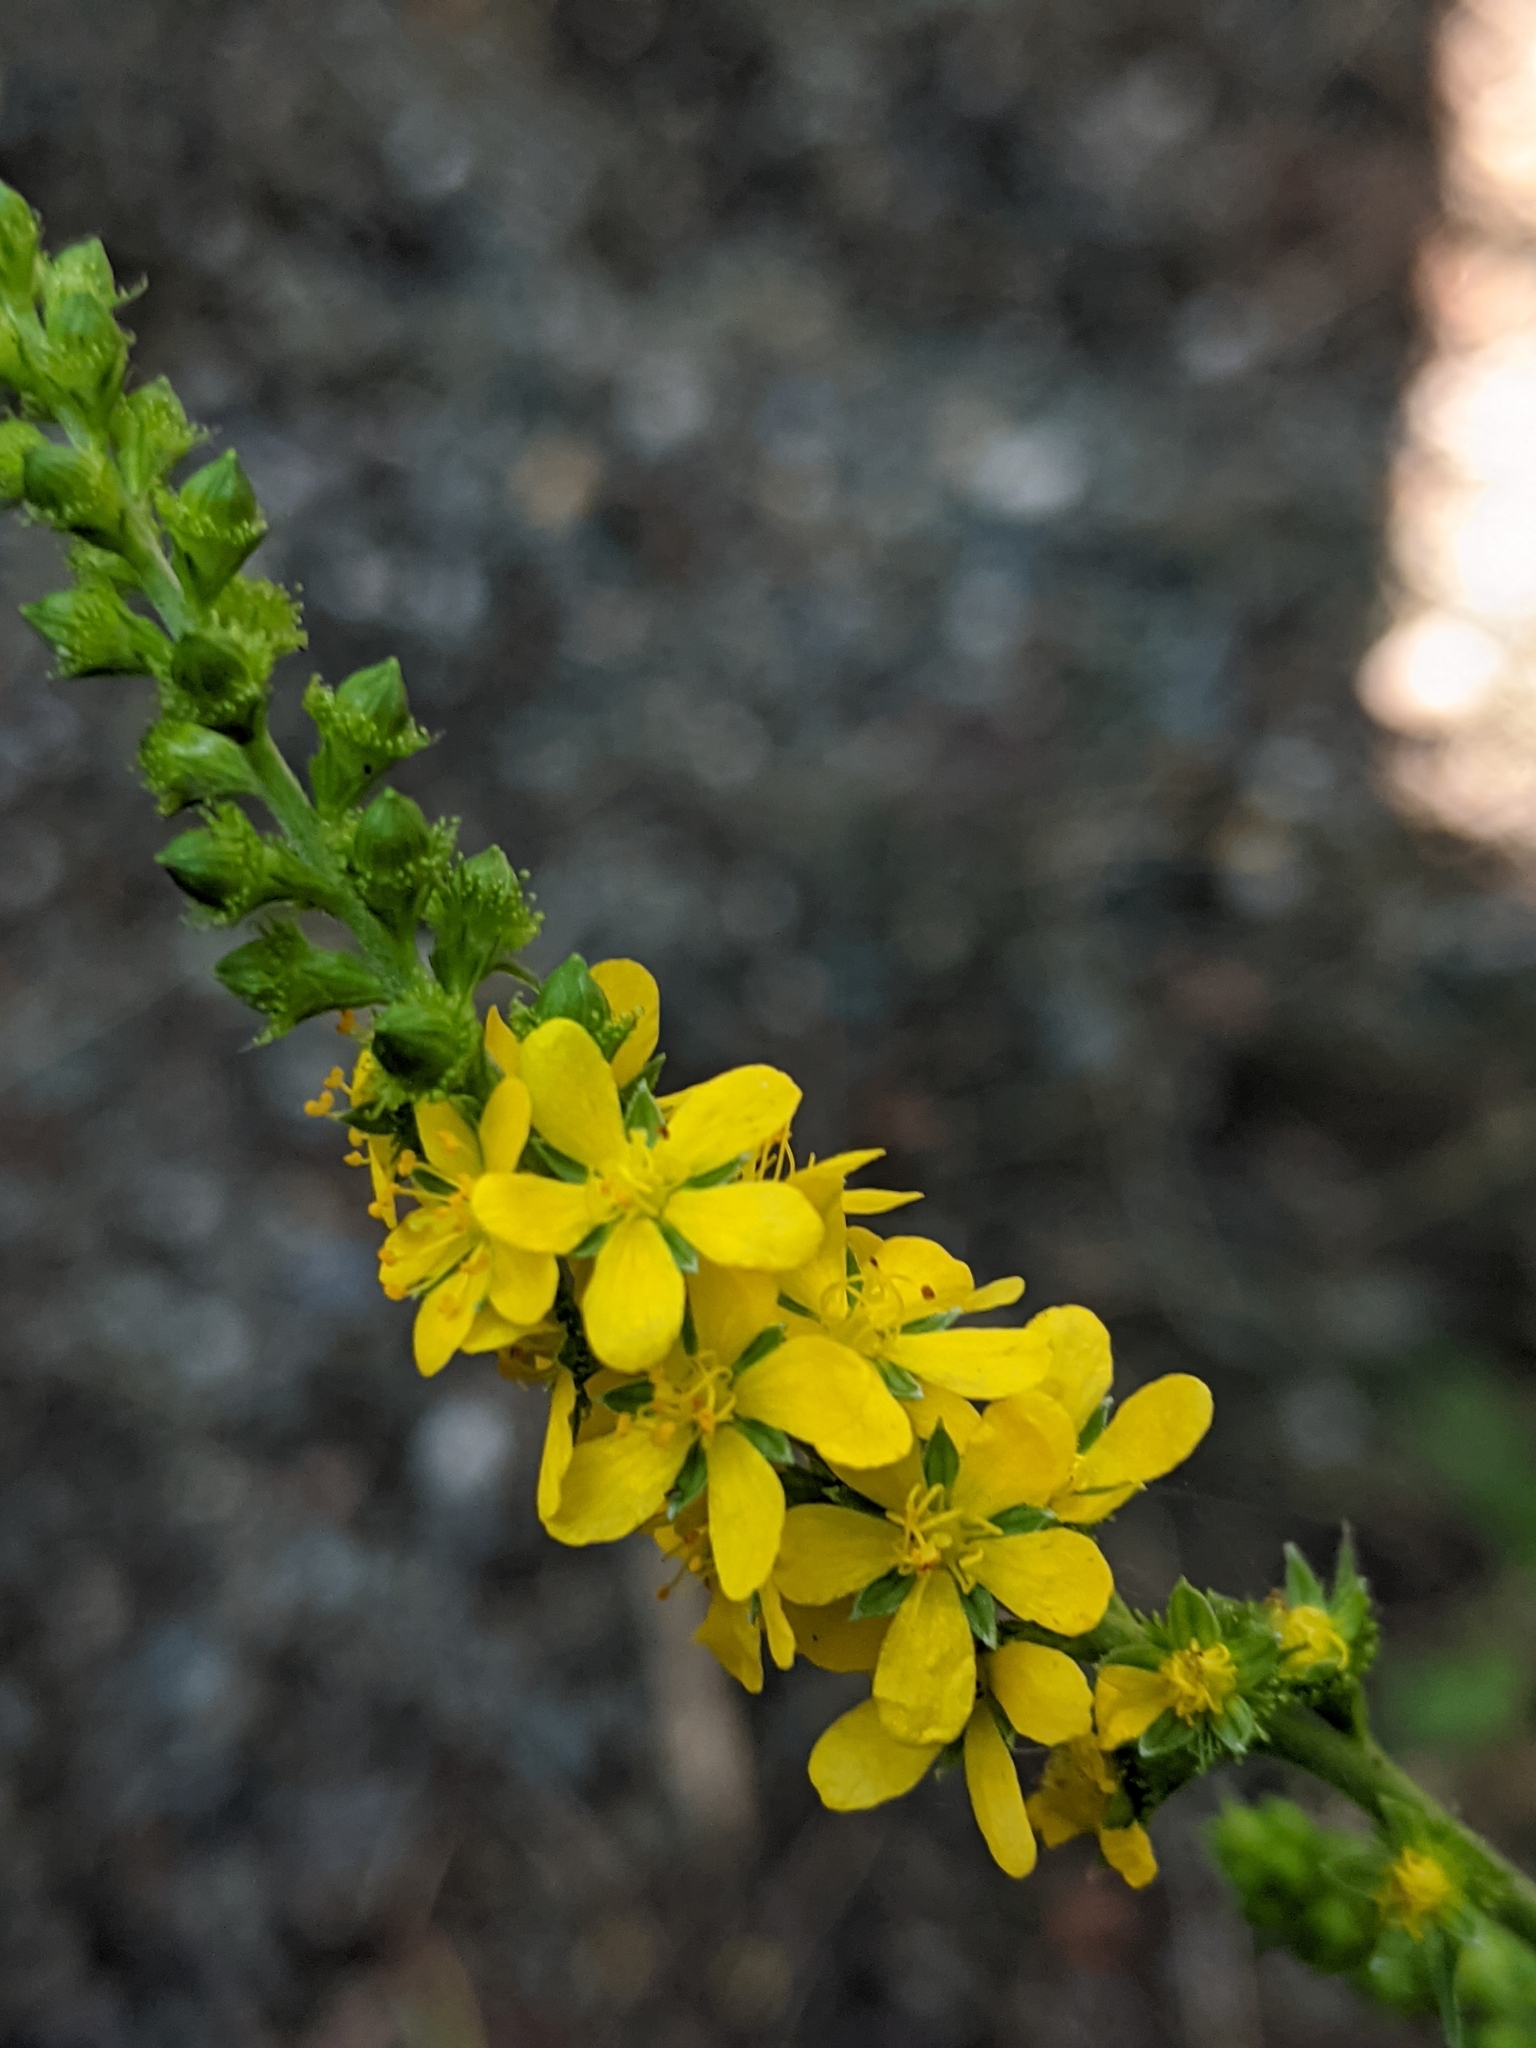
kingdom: Plantae
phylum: Tracheophyta
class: Magnoliopsida
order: Rosales
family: Rosaceae
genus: Agrimonia
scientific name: Agrimonia striata
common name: Britton's agrimony
